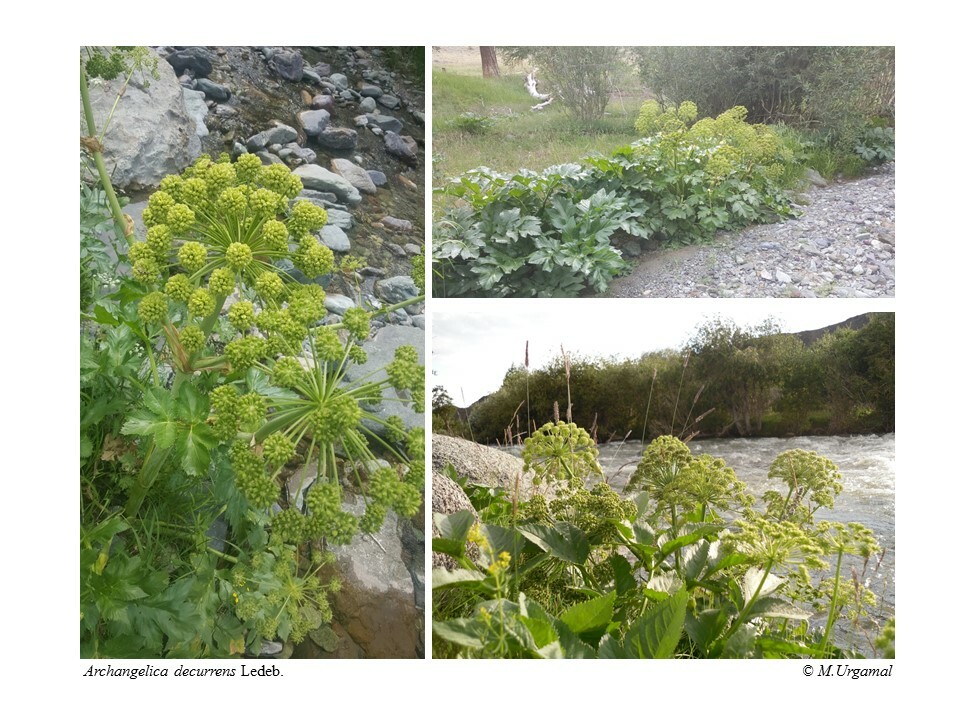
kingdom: Plantae
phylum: Tracheophyta
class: Magnoliopsida
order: Apiales
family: Apiaceae
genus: Angelica
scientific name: Angelica decurrens
